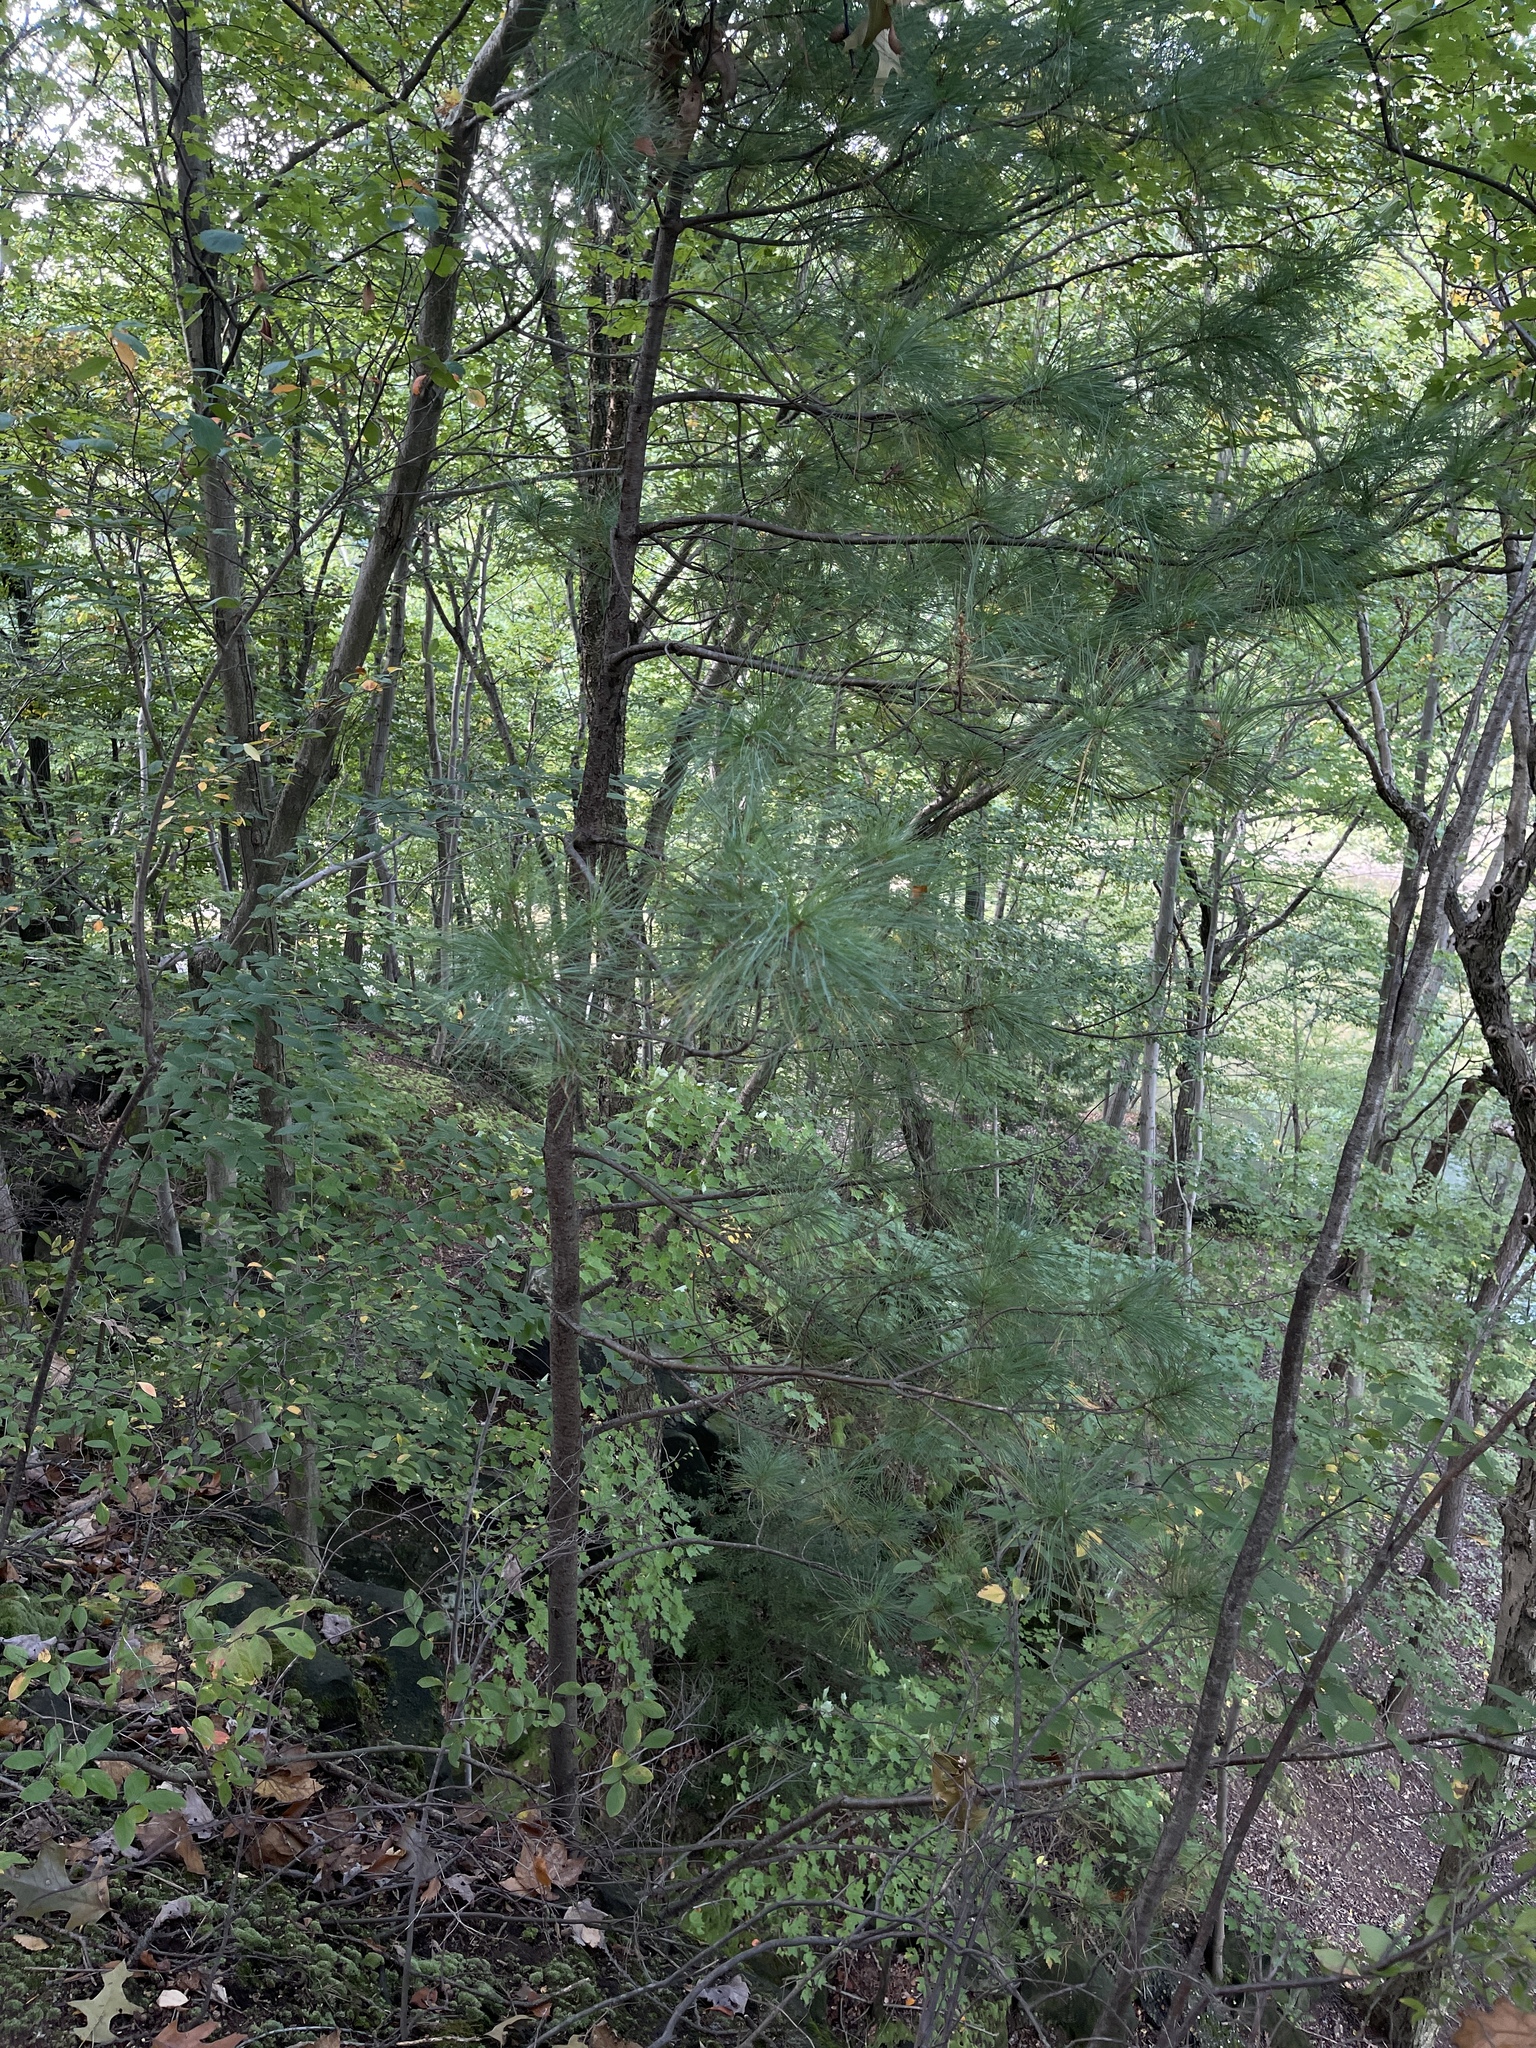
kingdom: Plantae
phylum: Tracheophyta
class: Pinopsida
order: Pinales
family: Pinaceae
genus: Pinus
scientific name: Pinus strobus
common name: Weymouth pine
